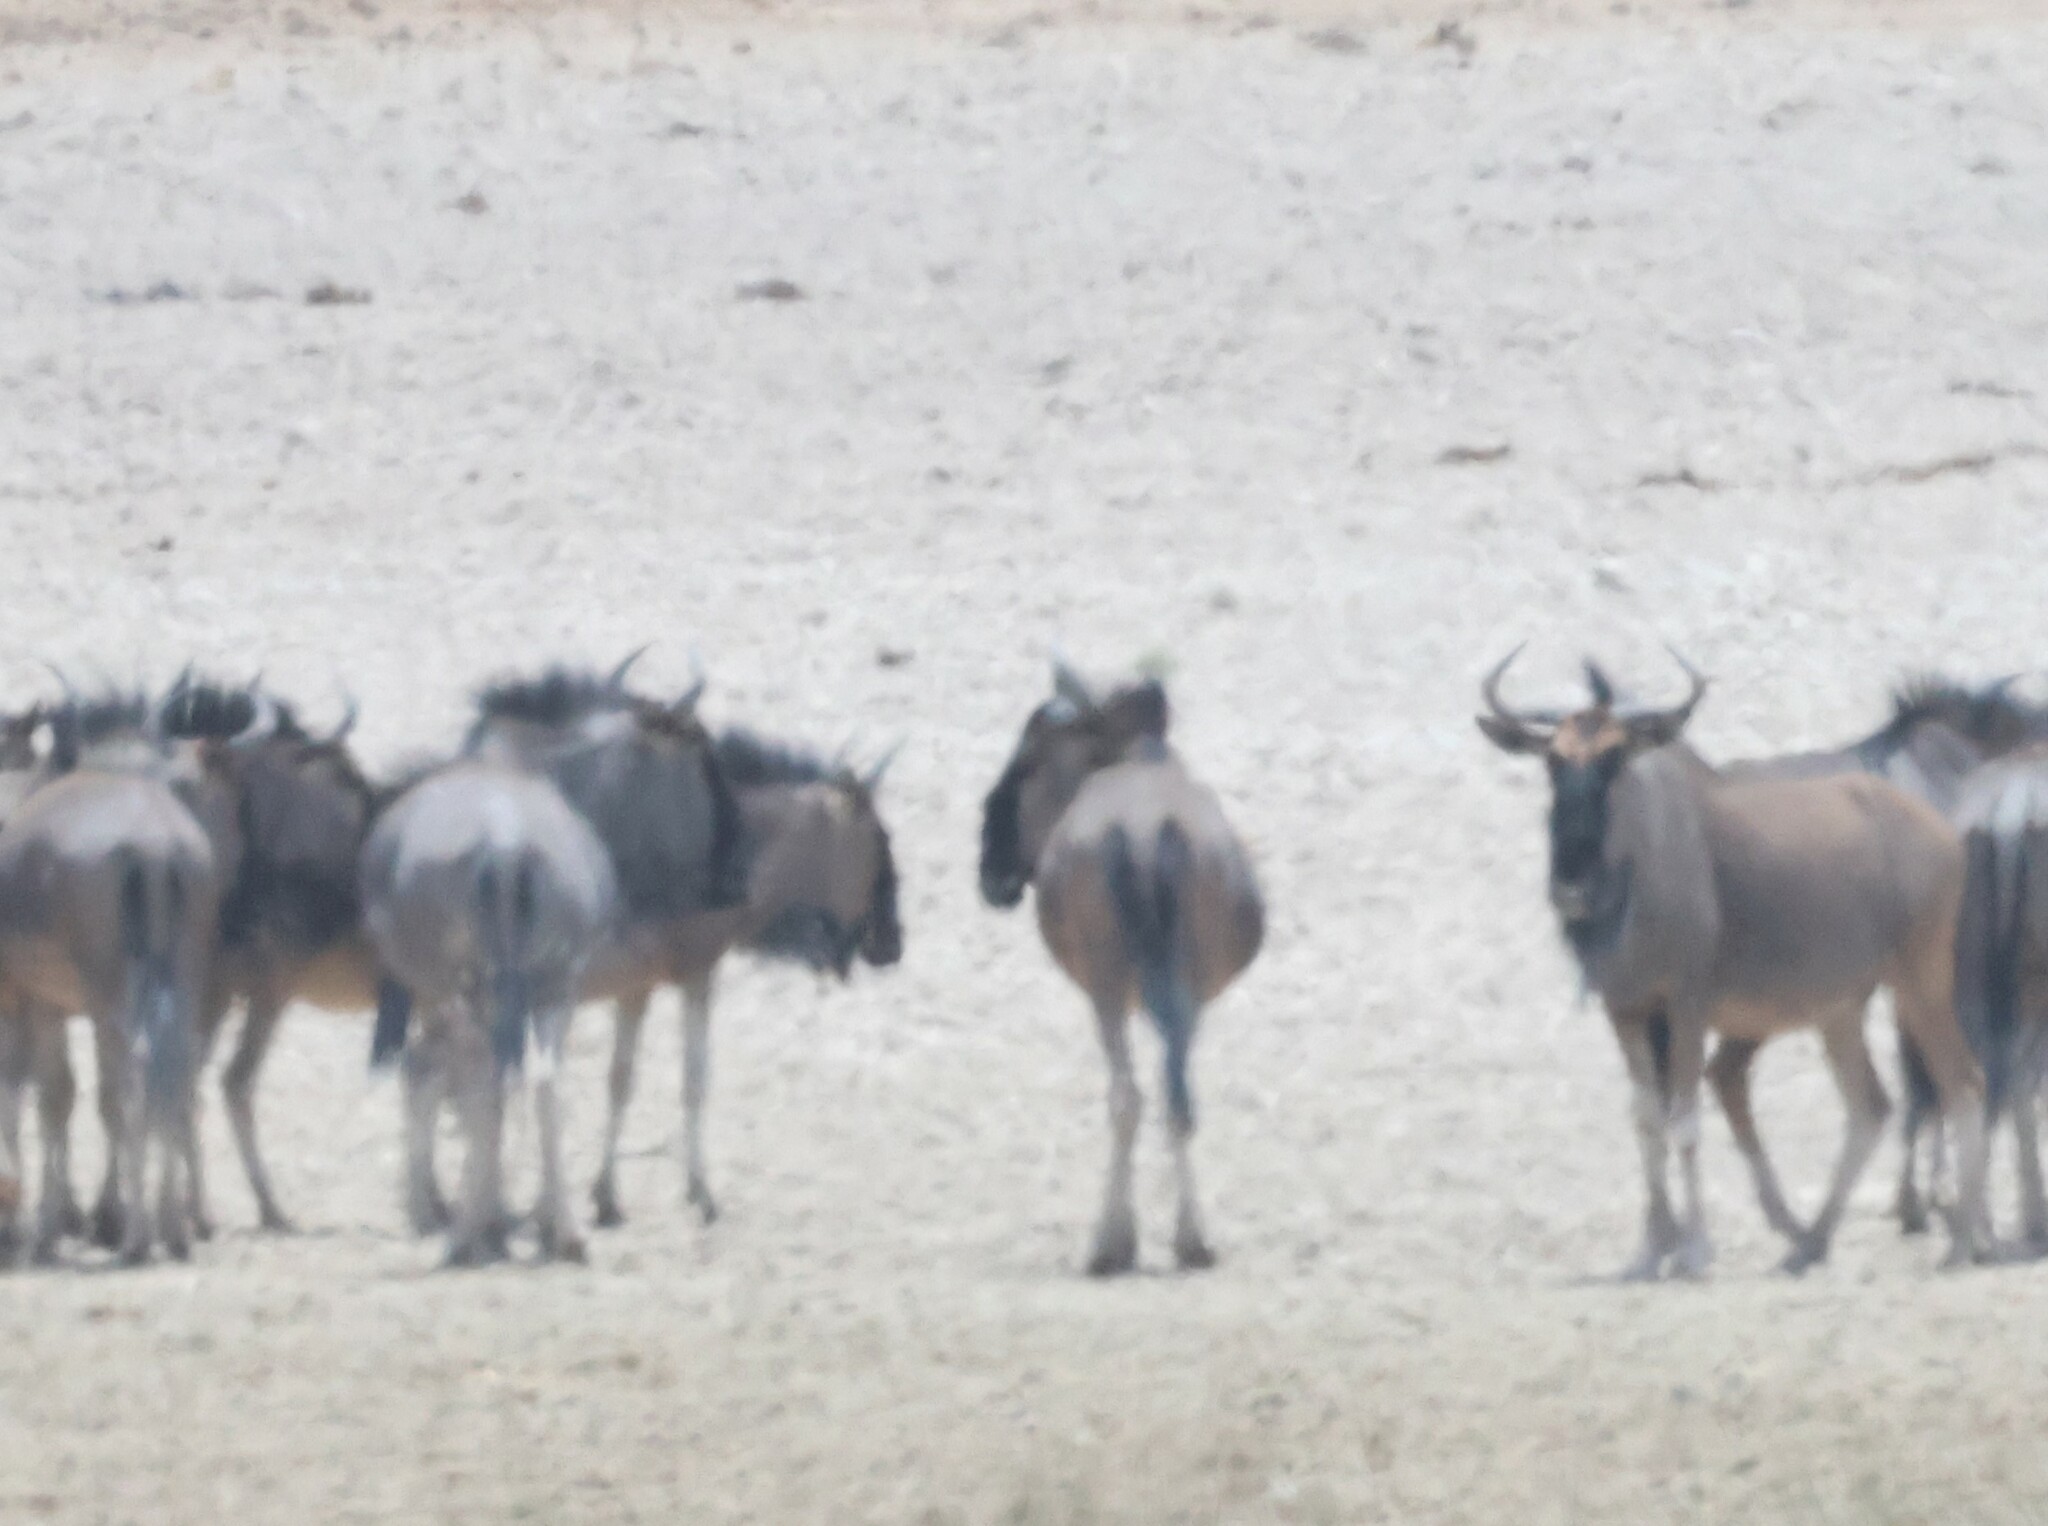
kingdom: Animalia
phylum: Chordata
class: Mammalia
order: Artiodactyla
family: Bovidae
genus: Connochaetes
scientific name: Connochaetes taurinus
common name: Blue wildebeest
